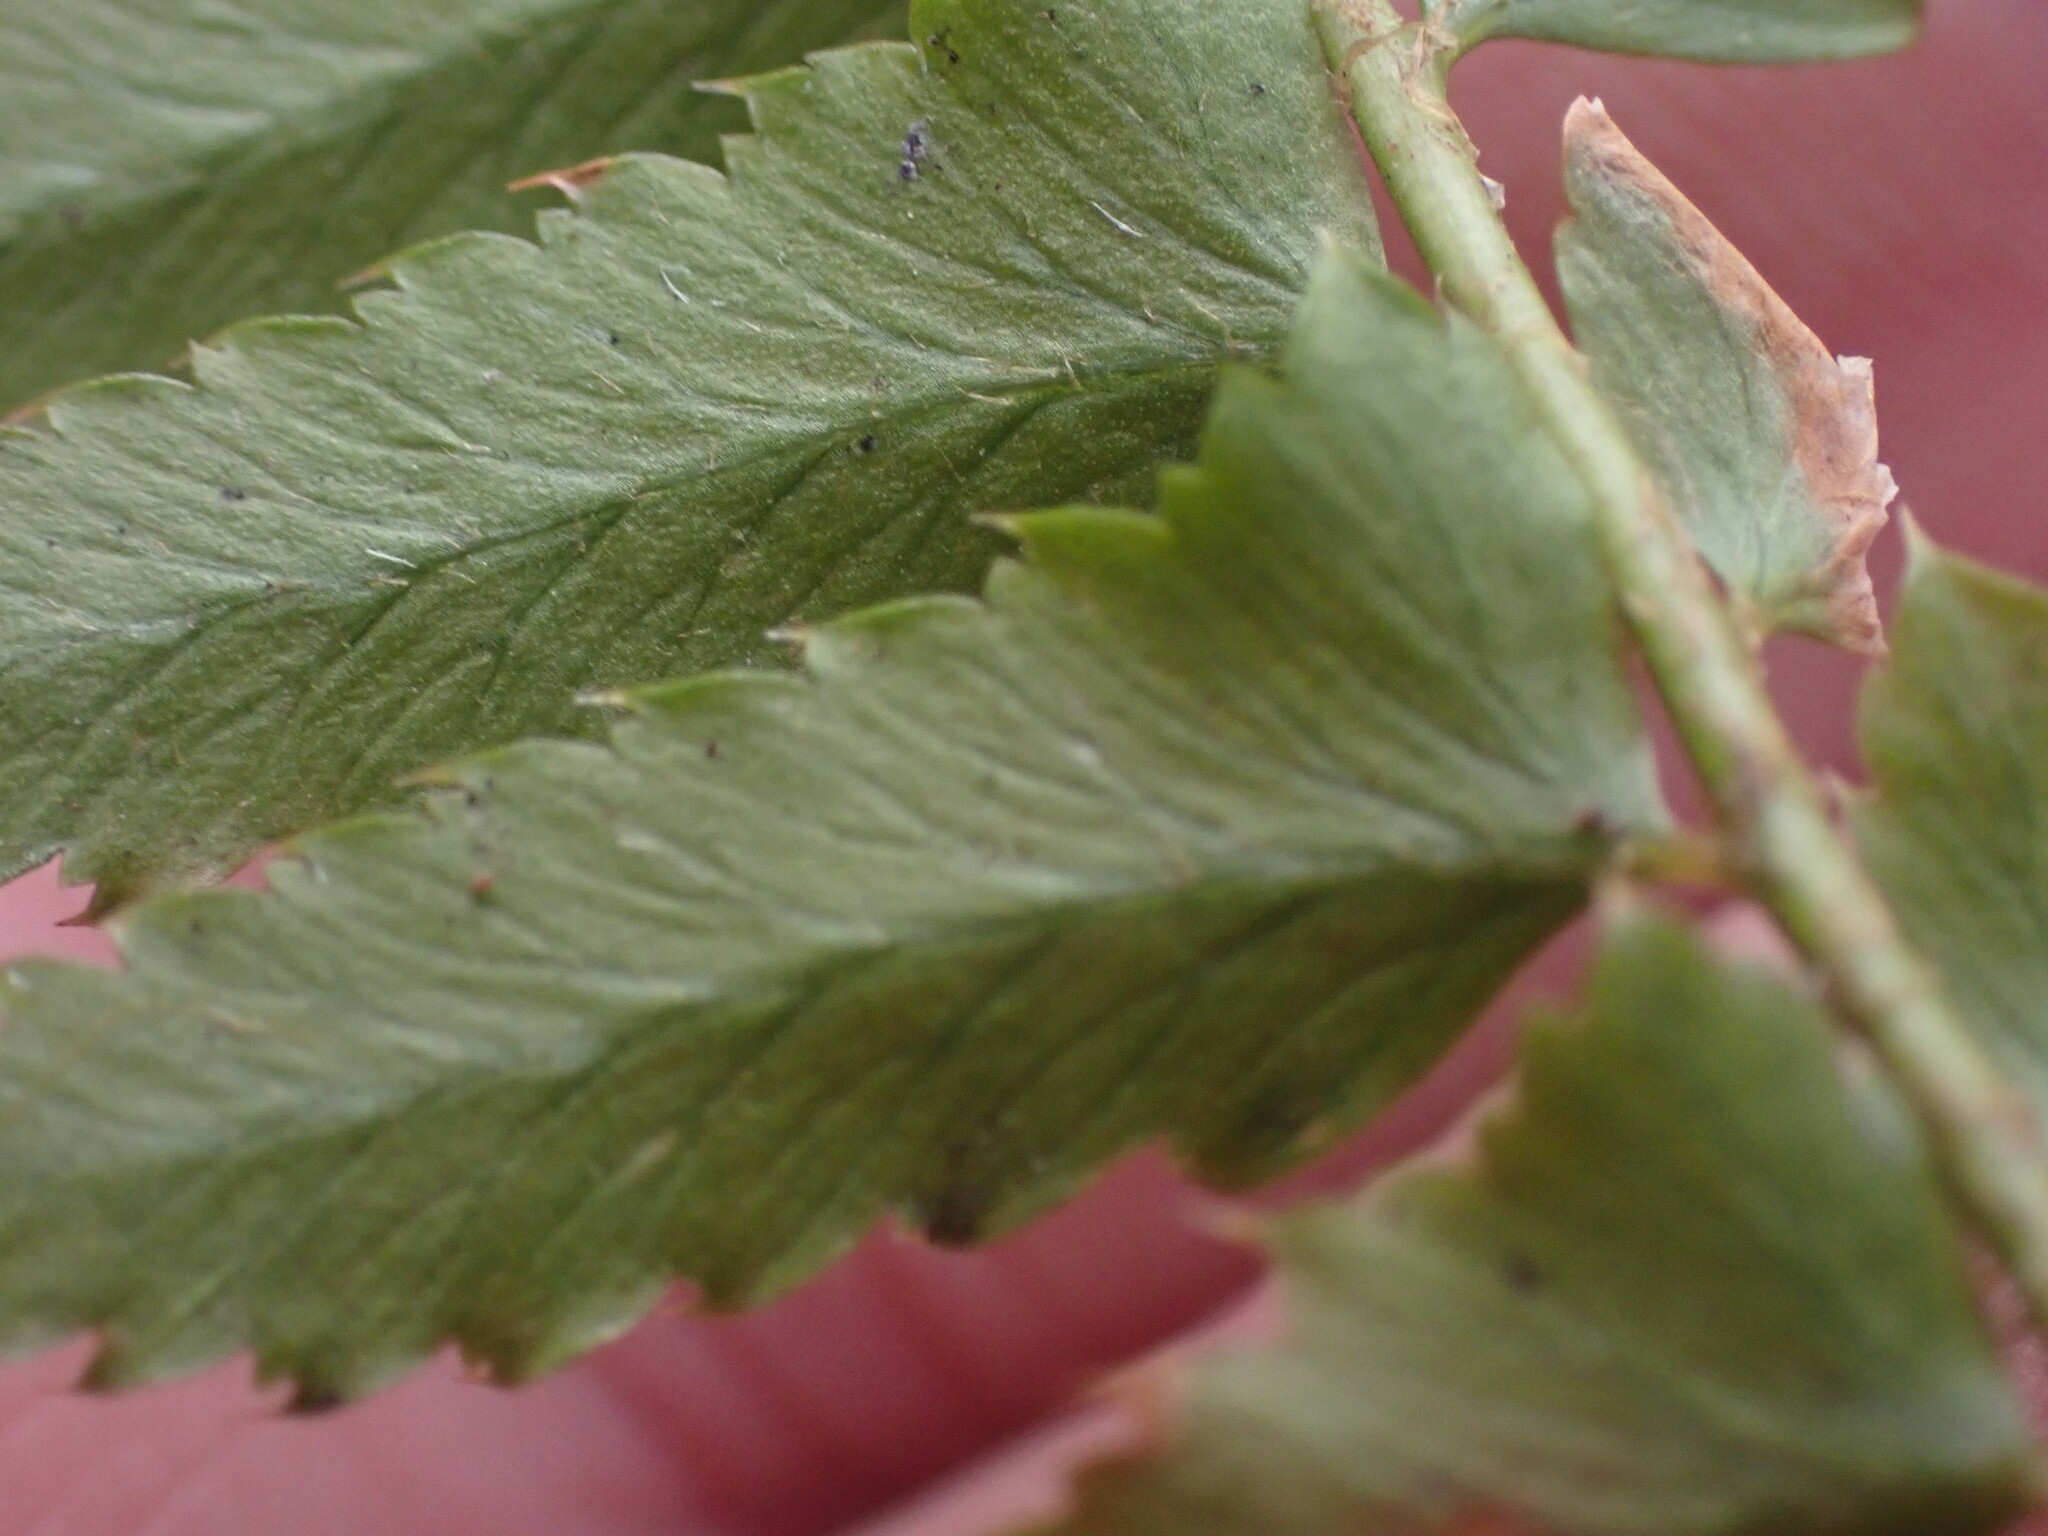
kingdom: Plantae
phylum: Tracheophyta
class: Polypodiopsida
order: Polypodiales
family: Dryopteridaceae
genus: Polystichum
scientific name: Polystichum munitum
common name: Western sword-fern
